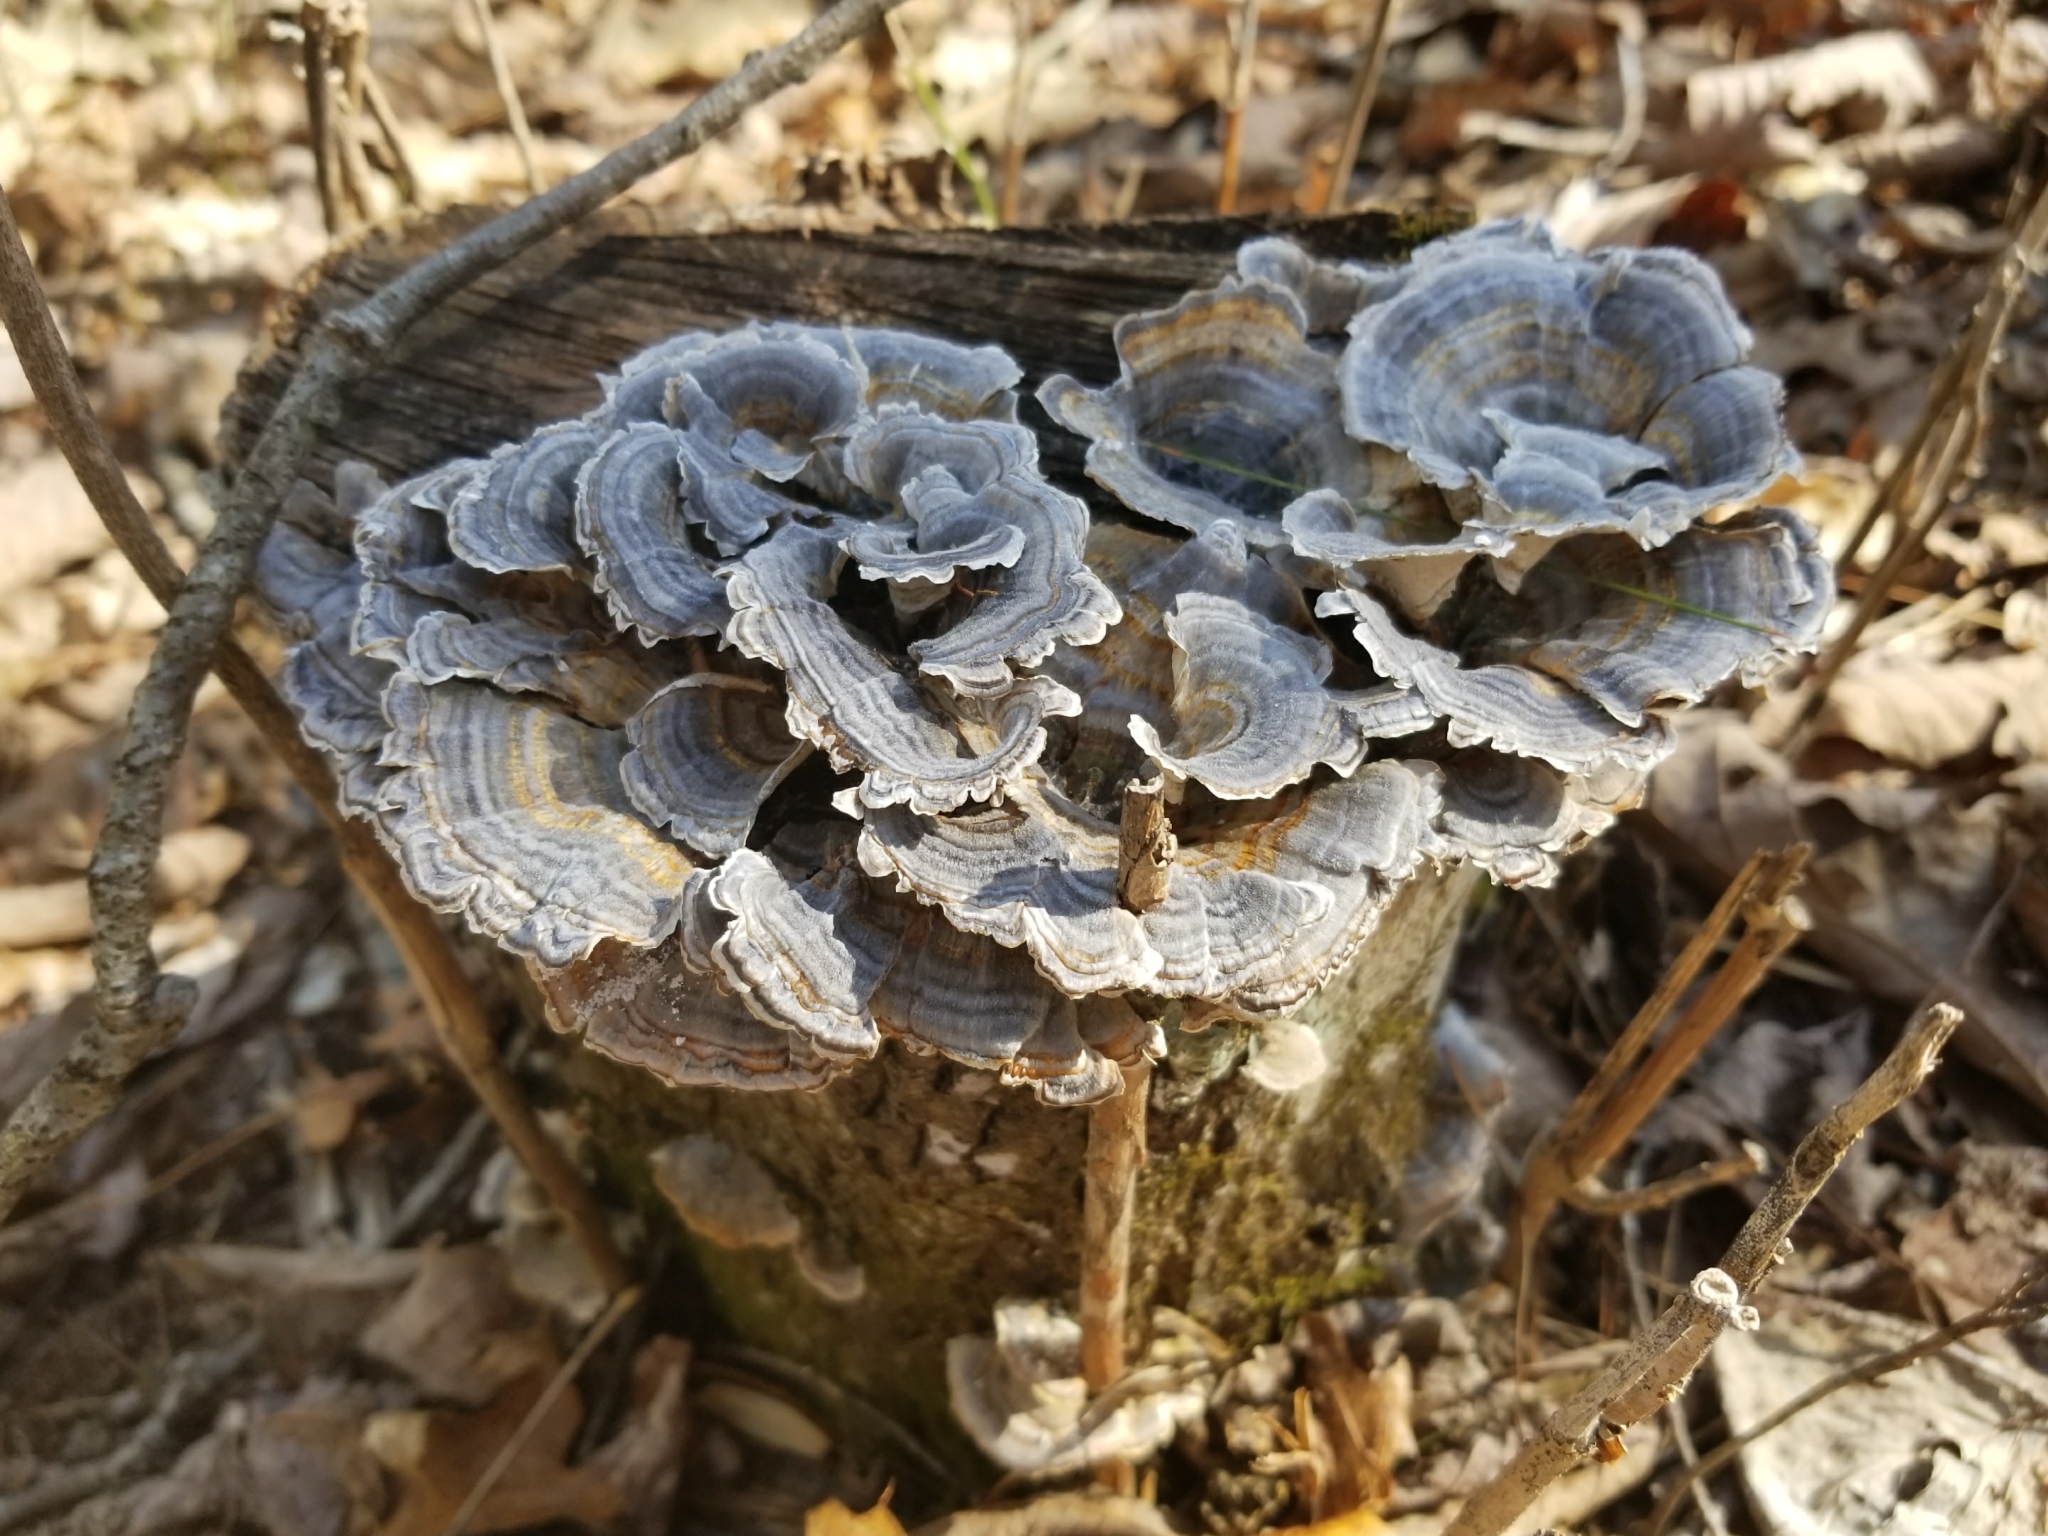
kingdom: Fungi
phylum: Basidiomycota
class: Agaricomycetes
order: Polyporales
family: Polyporaceae
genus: Trametes
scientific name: Trametes versicolor
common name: Turkeytail
